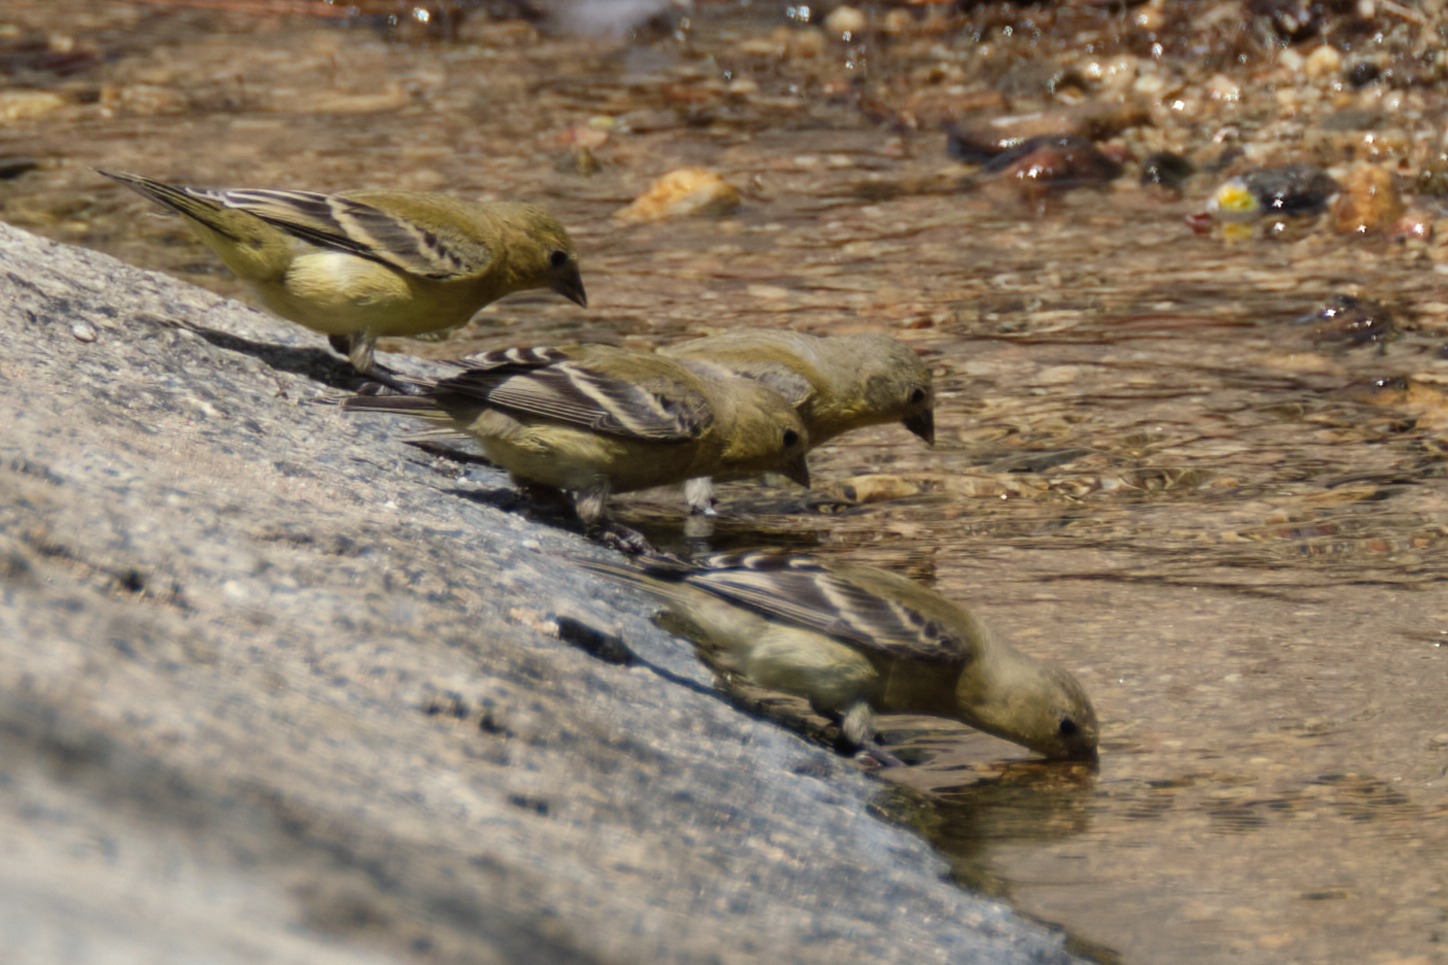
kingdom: Animalia
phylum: Chordata
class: Aves
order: Passeriformes
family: Fringillidae
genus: Spinus
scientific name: Spinus psaltria
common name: Lesser goldfinch
